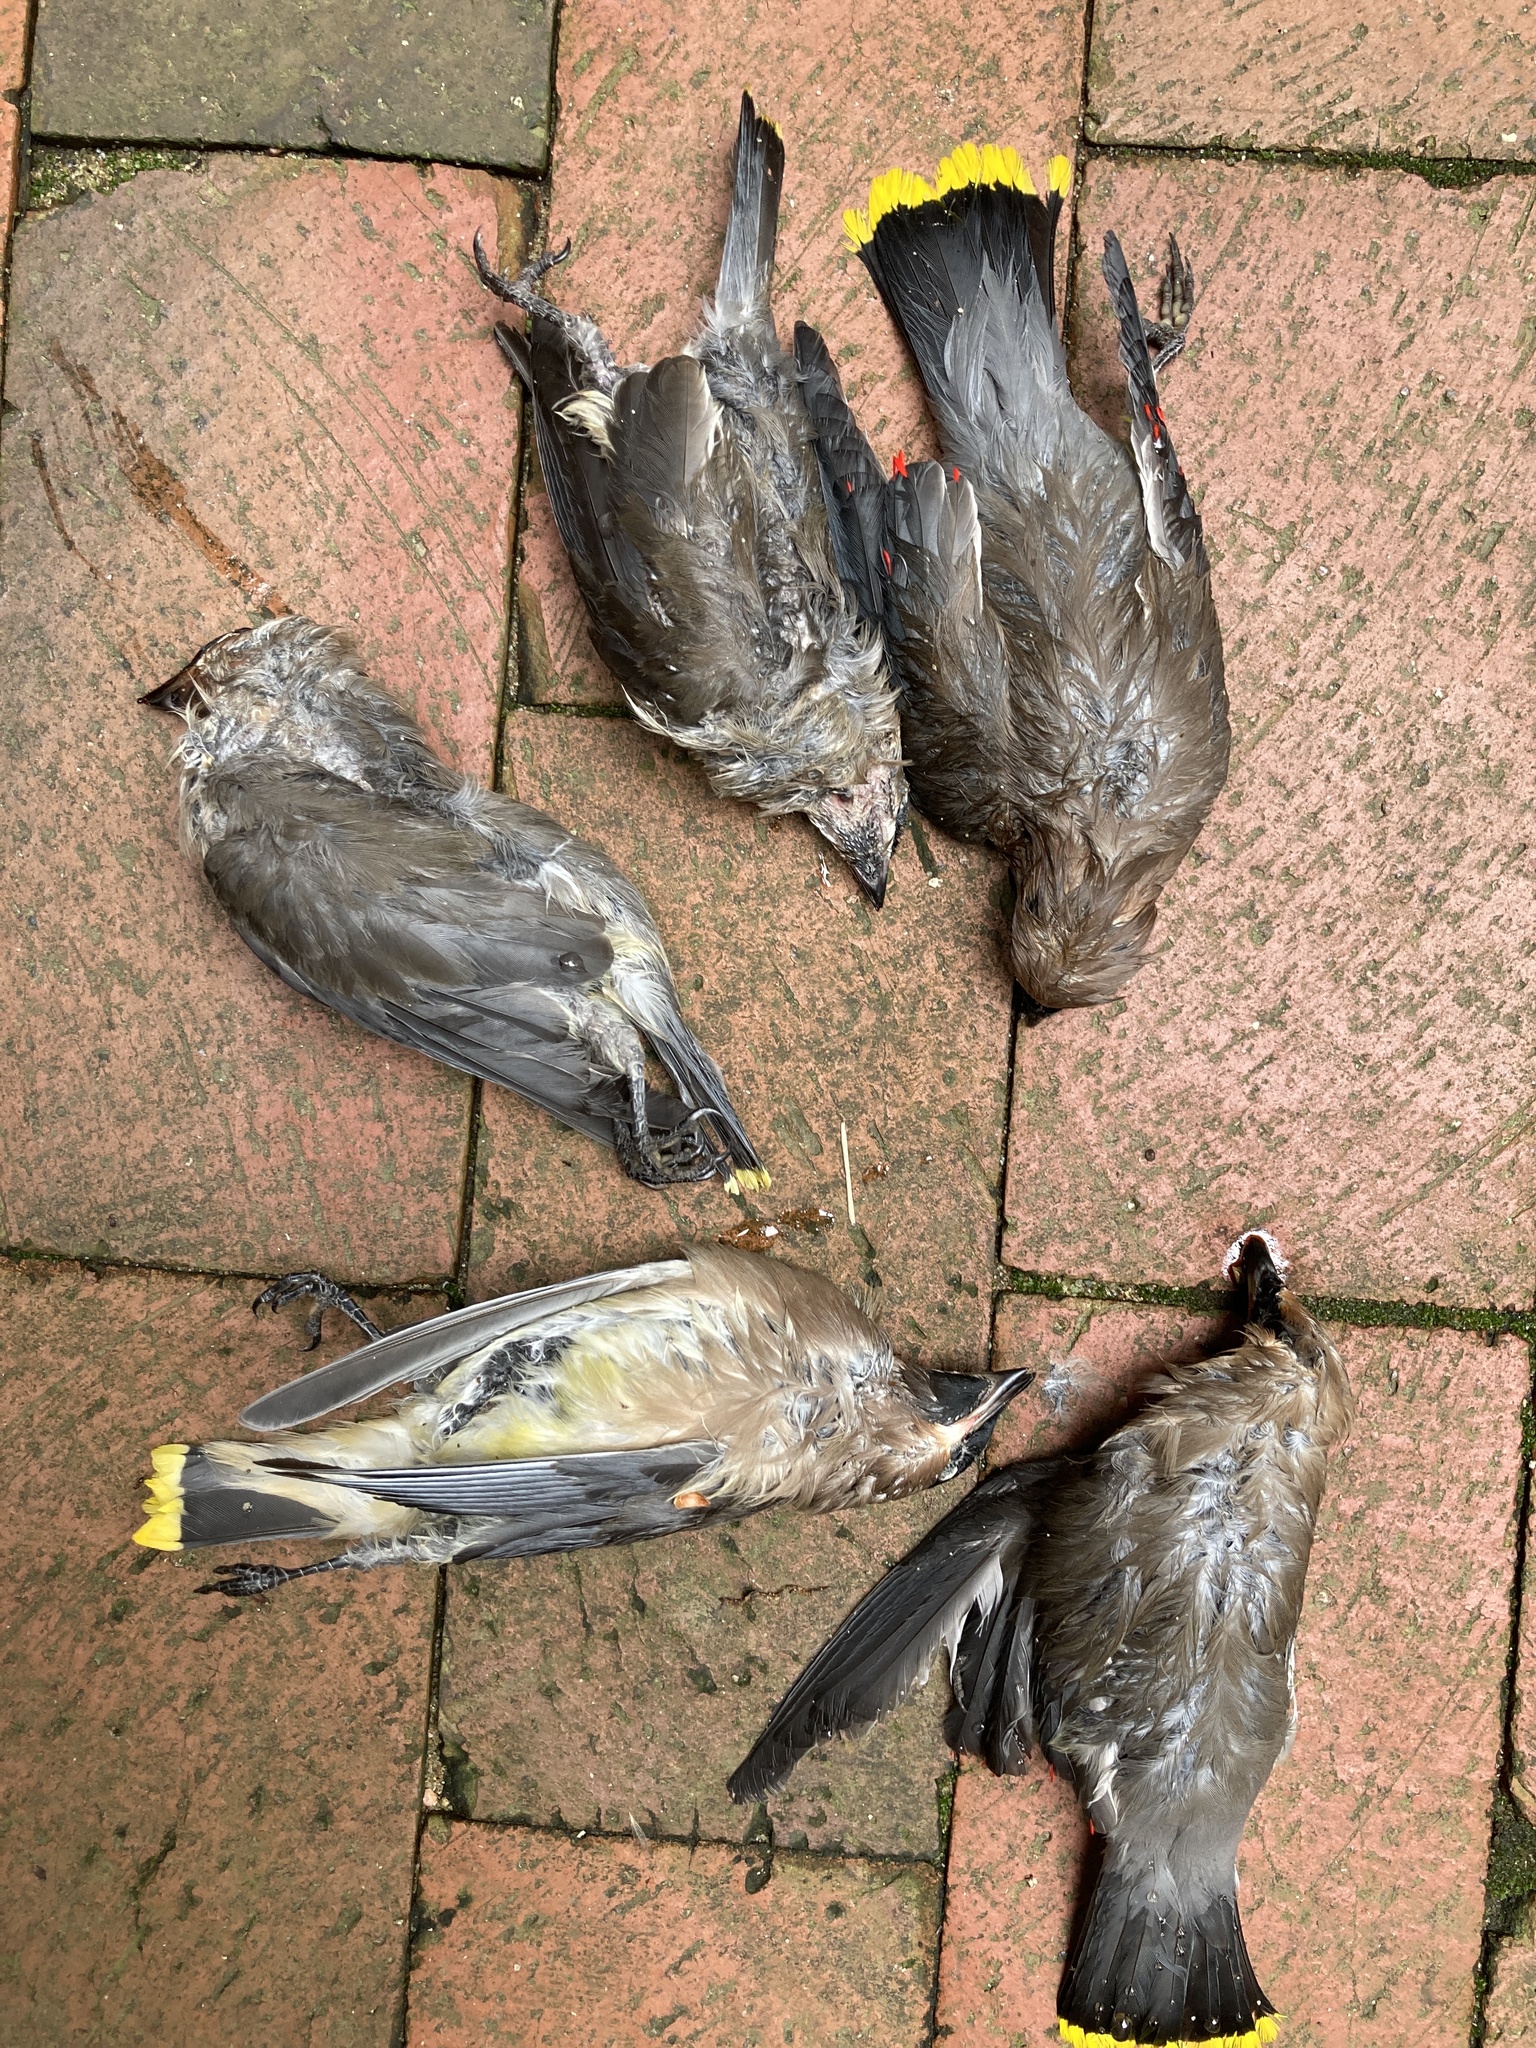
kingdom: Animalia
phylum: Chordata
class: Aves
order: Passeriformes
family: Bombycillidae
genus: Bombycilla
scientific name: Bombycilla cedrorum
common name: Cedar waxwing
